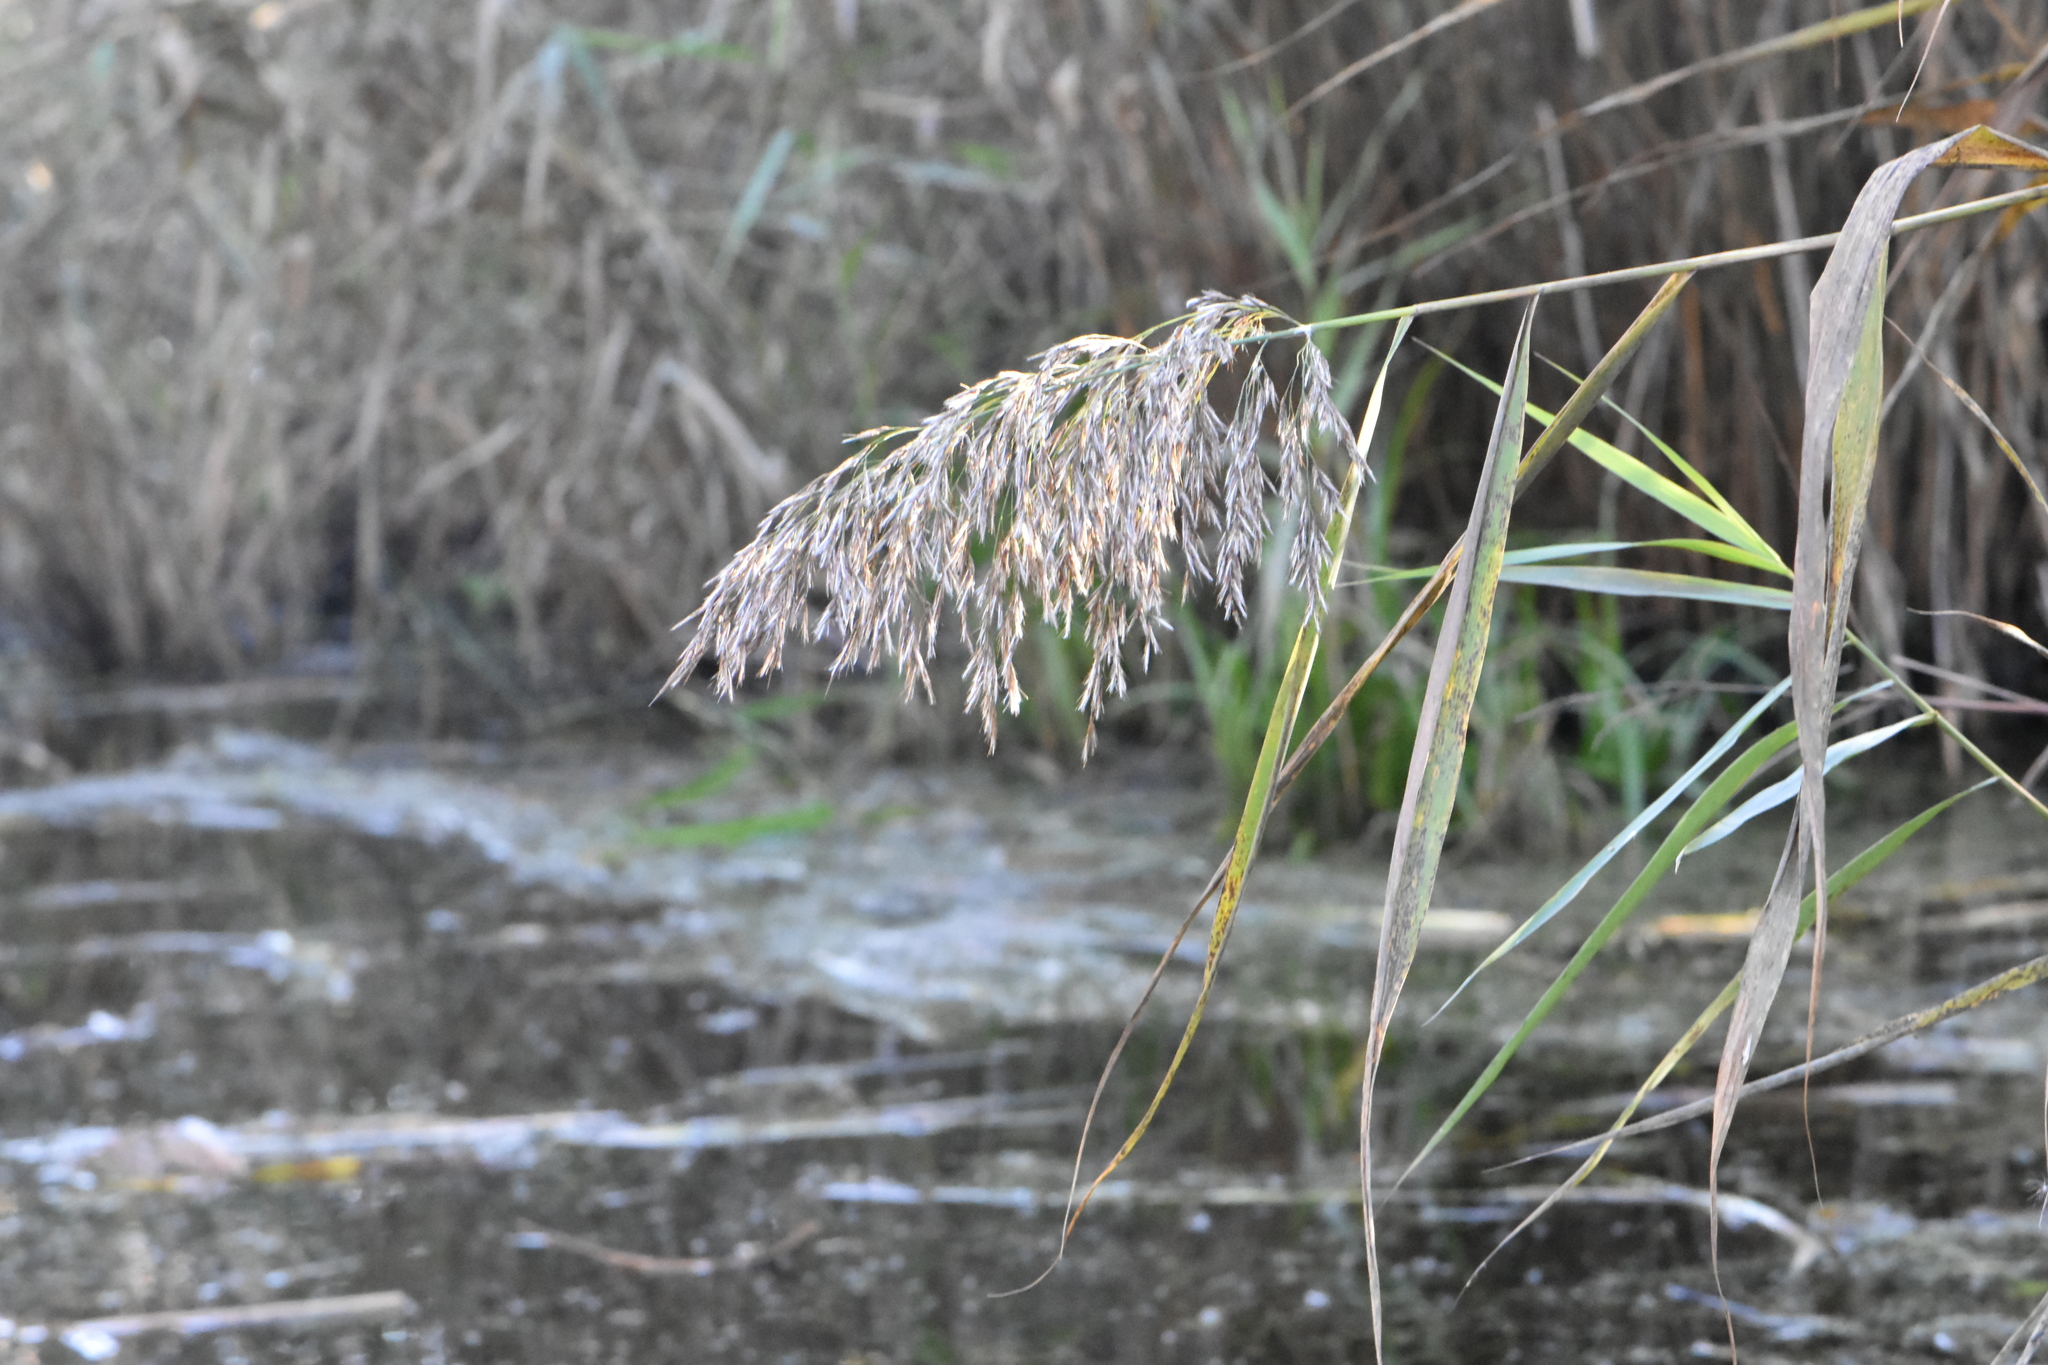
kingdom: Plantae
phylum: Tracheophyta
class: Liliopsida
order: Poales
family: Poaceae
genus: Phragmites
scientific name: Phragmites australis
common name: Common reed
